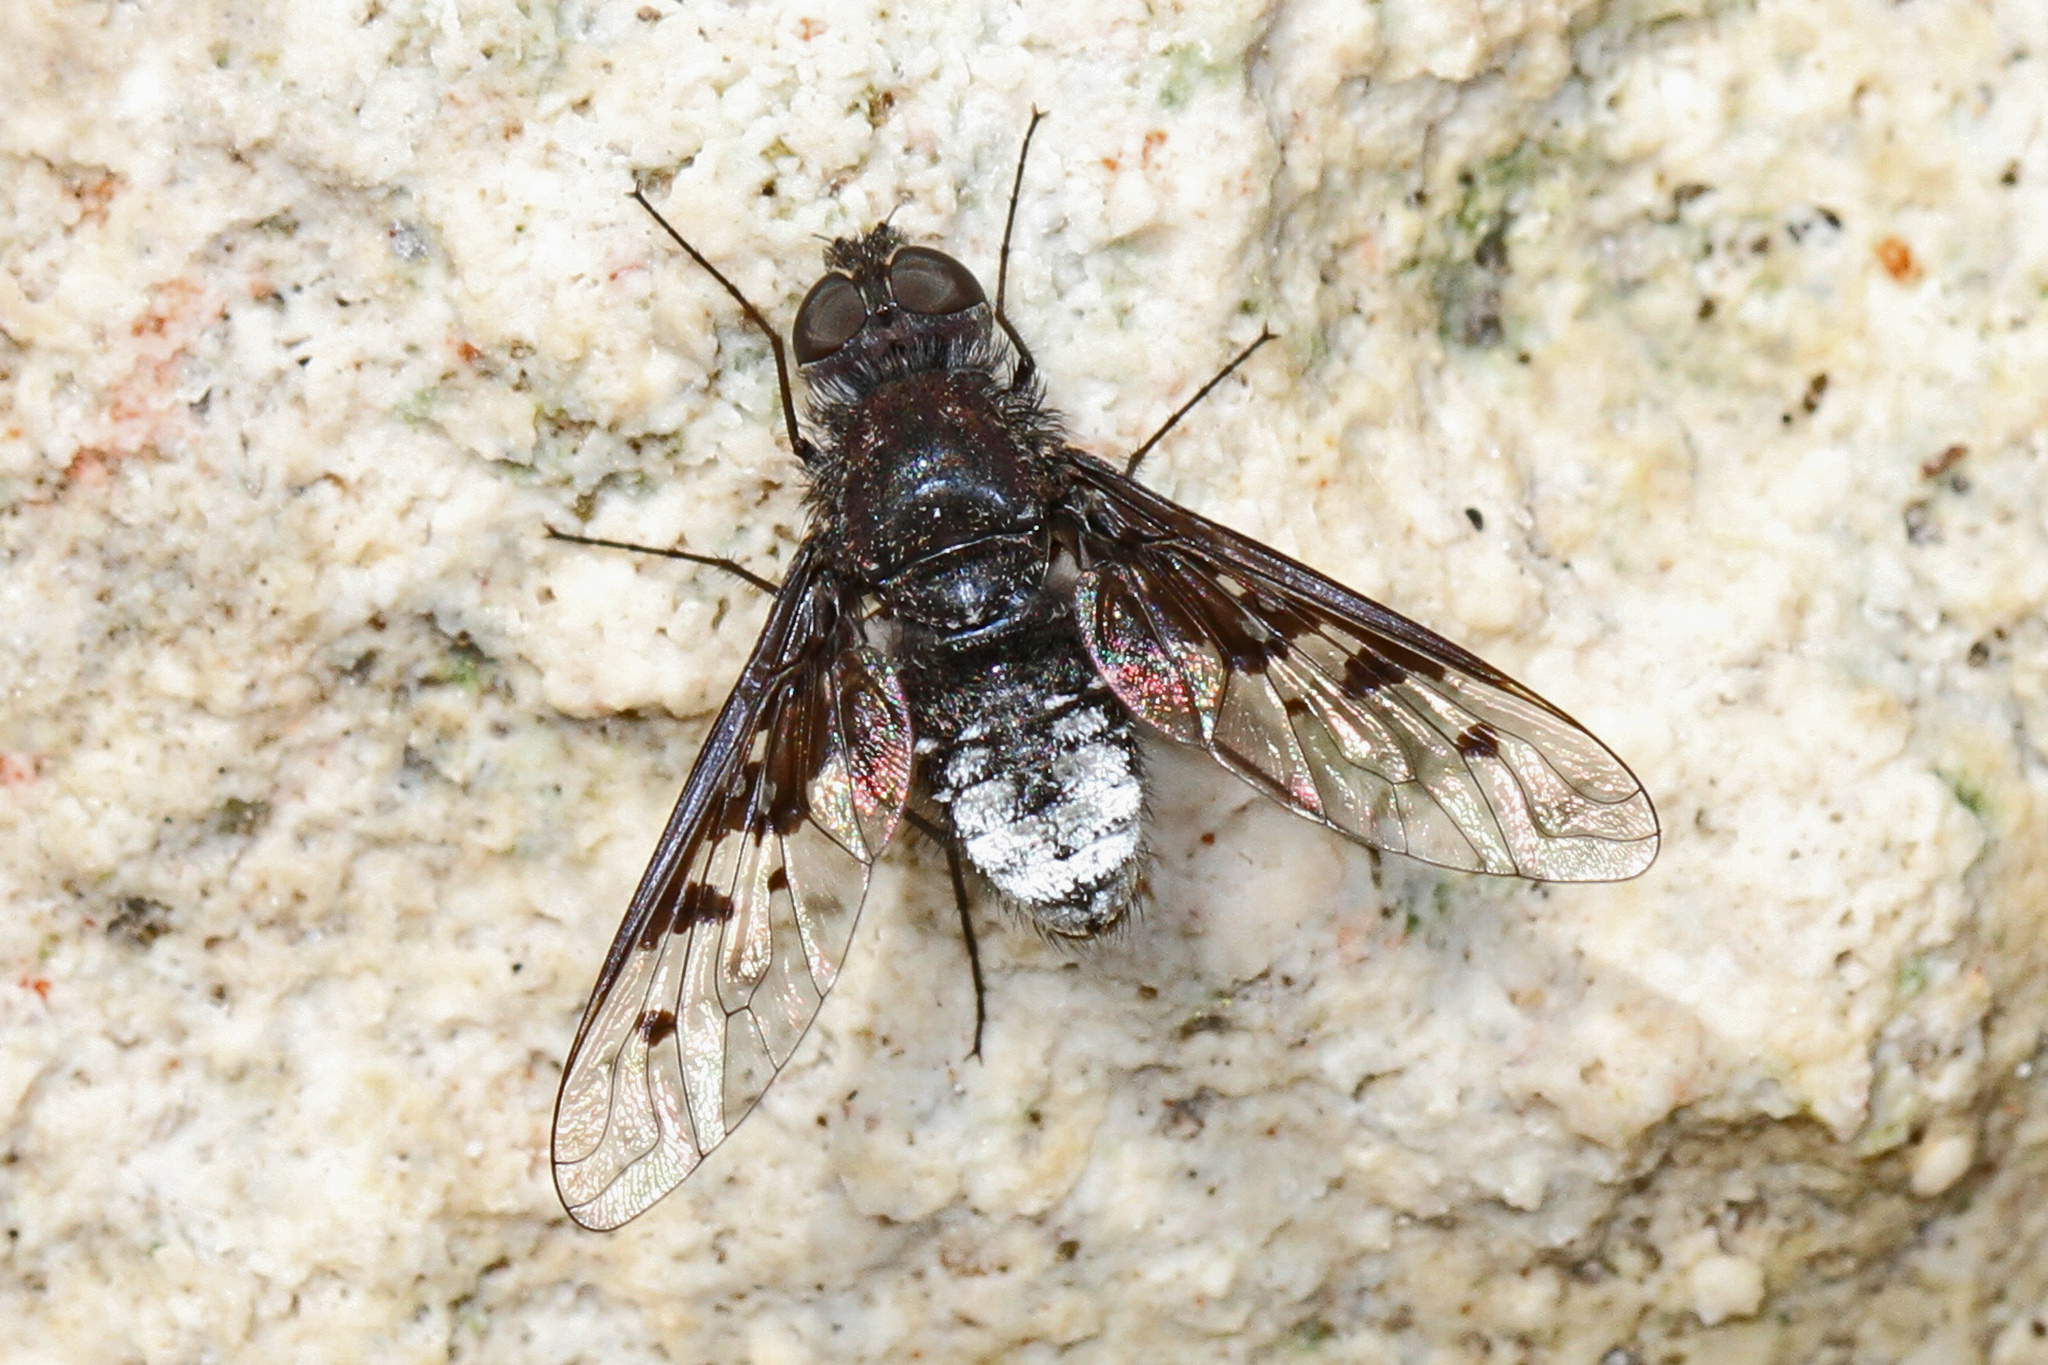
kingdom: Animalia
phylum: Arthropoda
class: Insecta
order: Diptera
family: Bombyliidae
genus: Anthrax
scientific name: Anthrax albofasciatus
